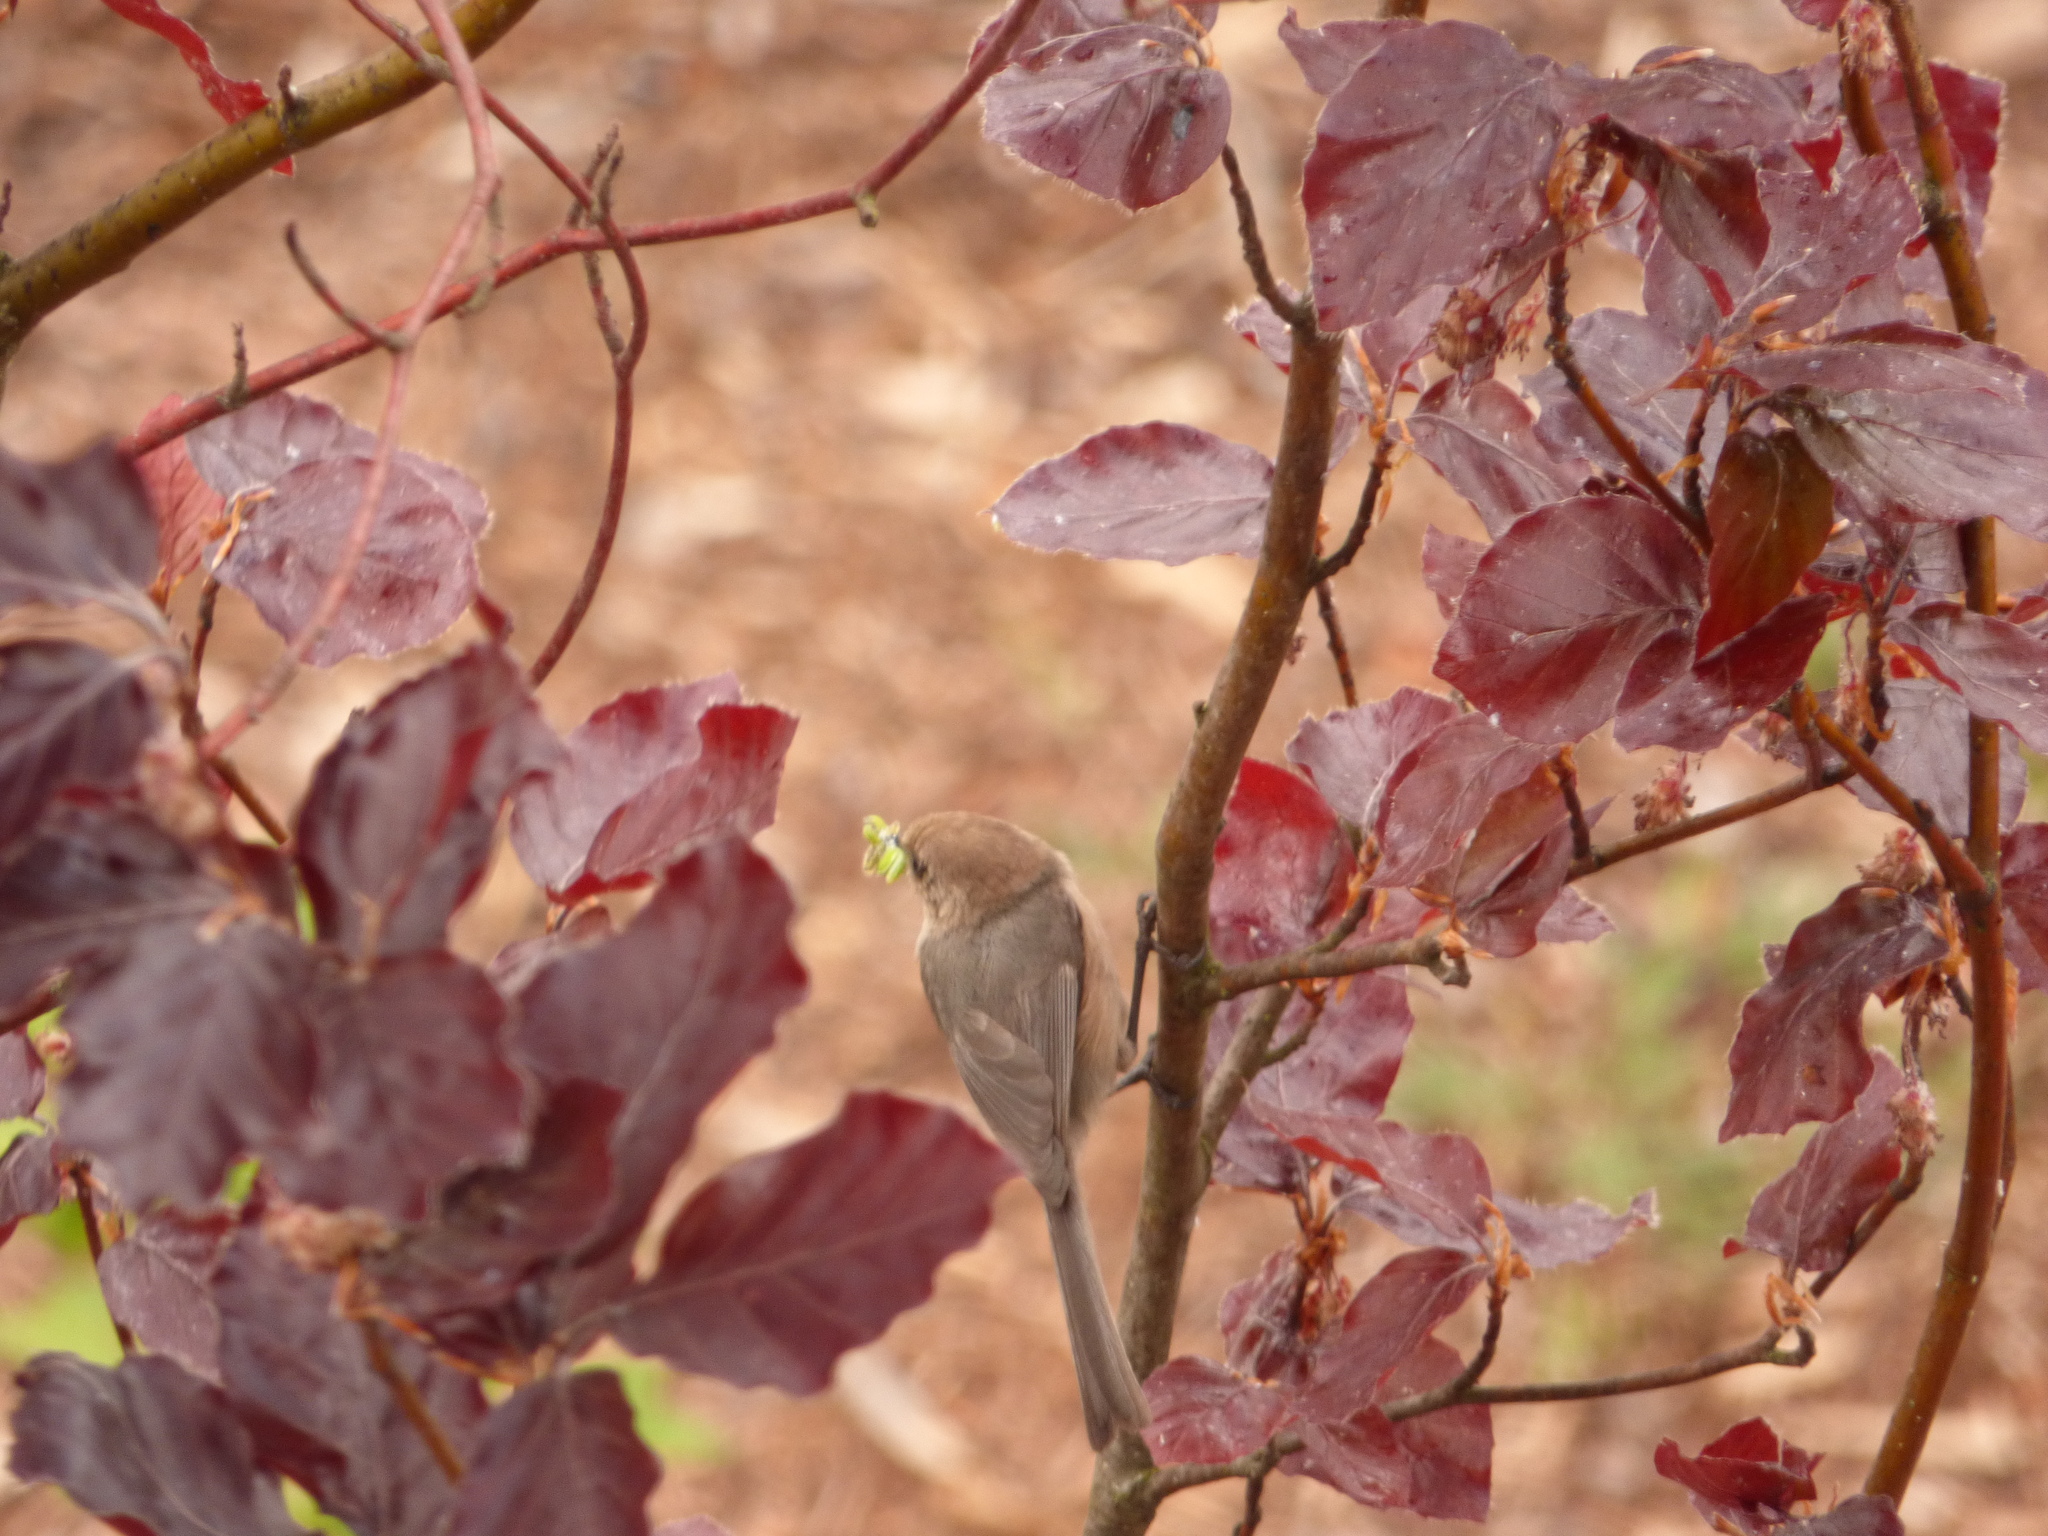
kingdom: Animalia
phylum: Chordata
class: Aves
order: Passeriformes
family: Aegithalidae
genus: Psaltriparus
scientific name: Psaltriparus minimus
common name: American bushtit
